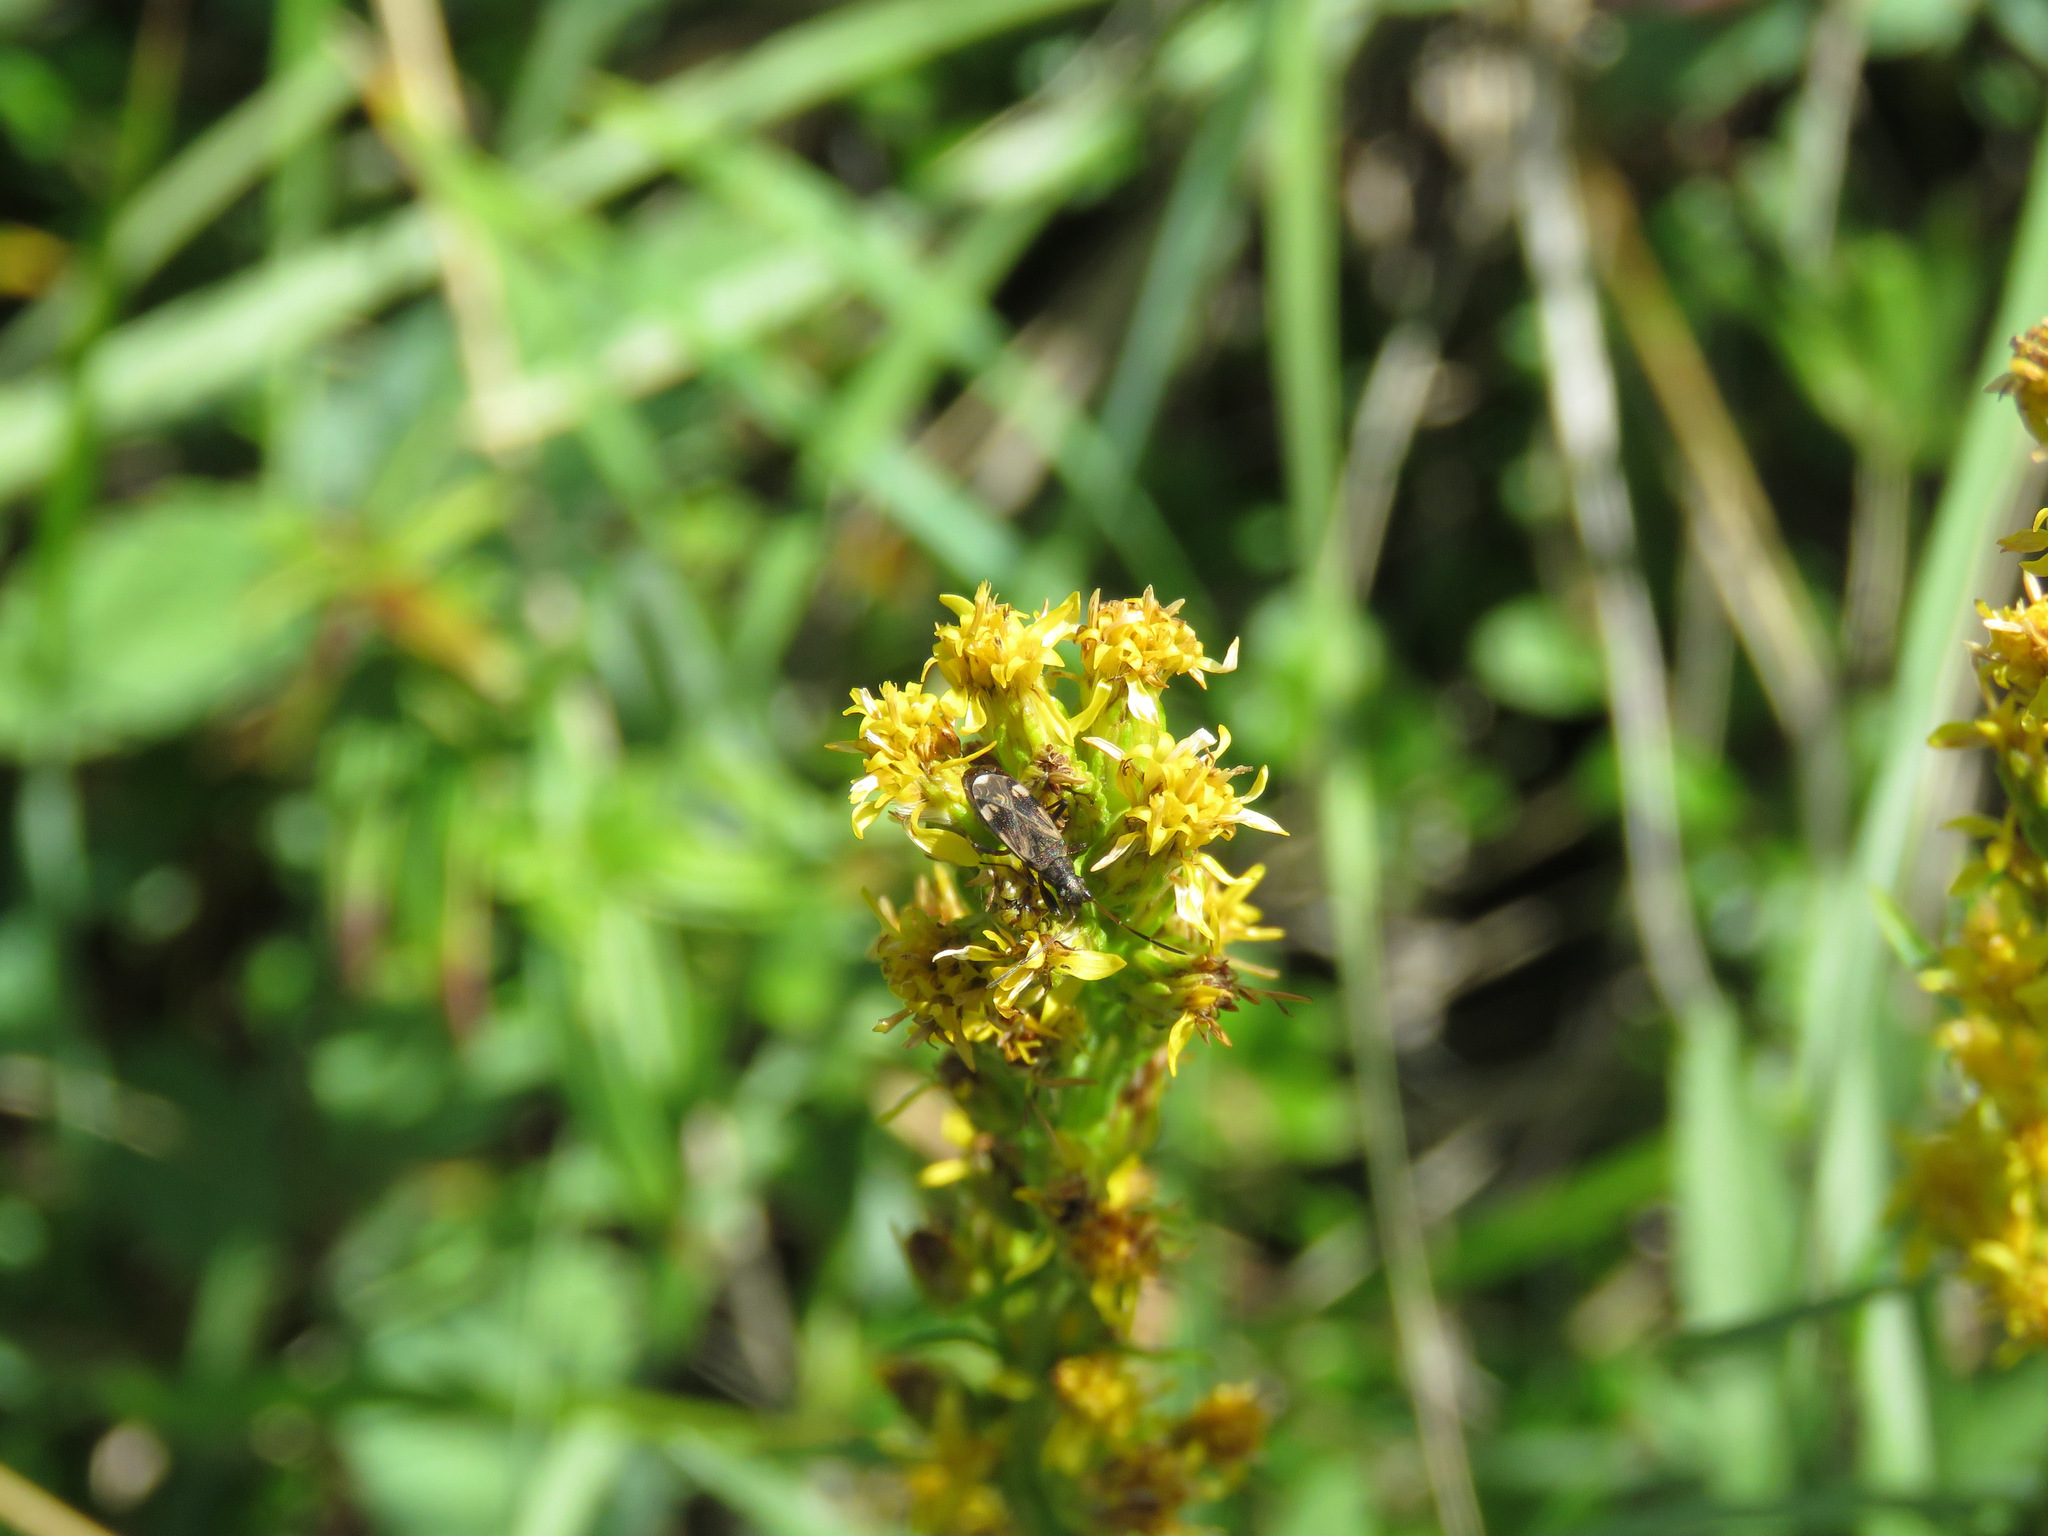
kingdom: Animalia
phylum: Arthropoda
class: Insecta
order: Hemiptera
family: Rhyparochromidae
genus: Ligyrocoris
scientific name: Ligyrocoris sylvestris
